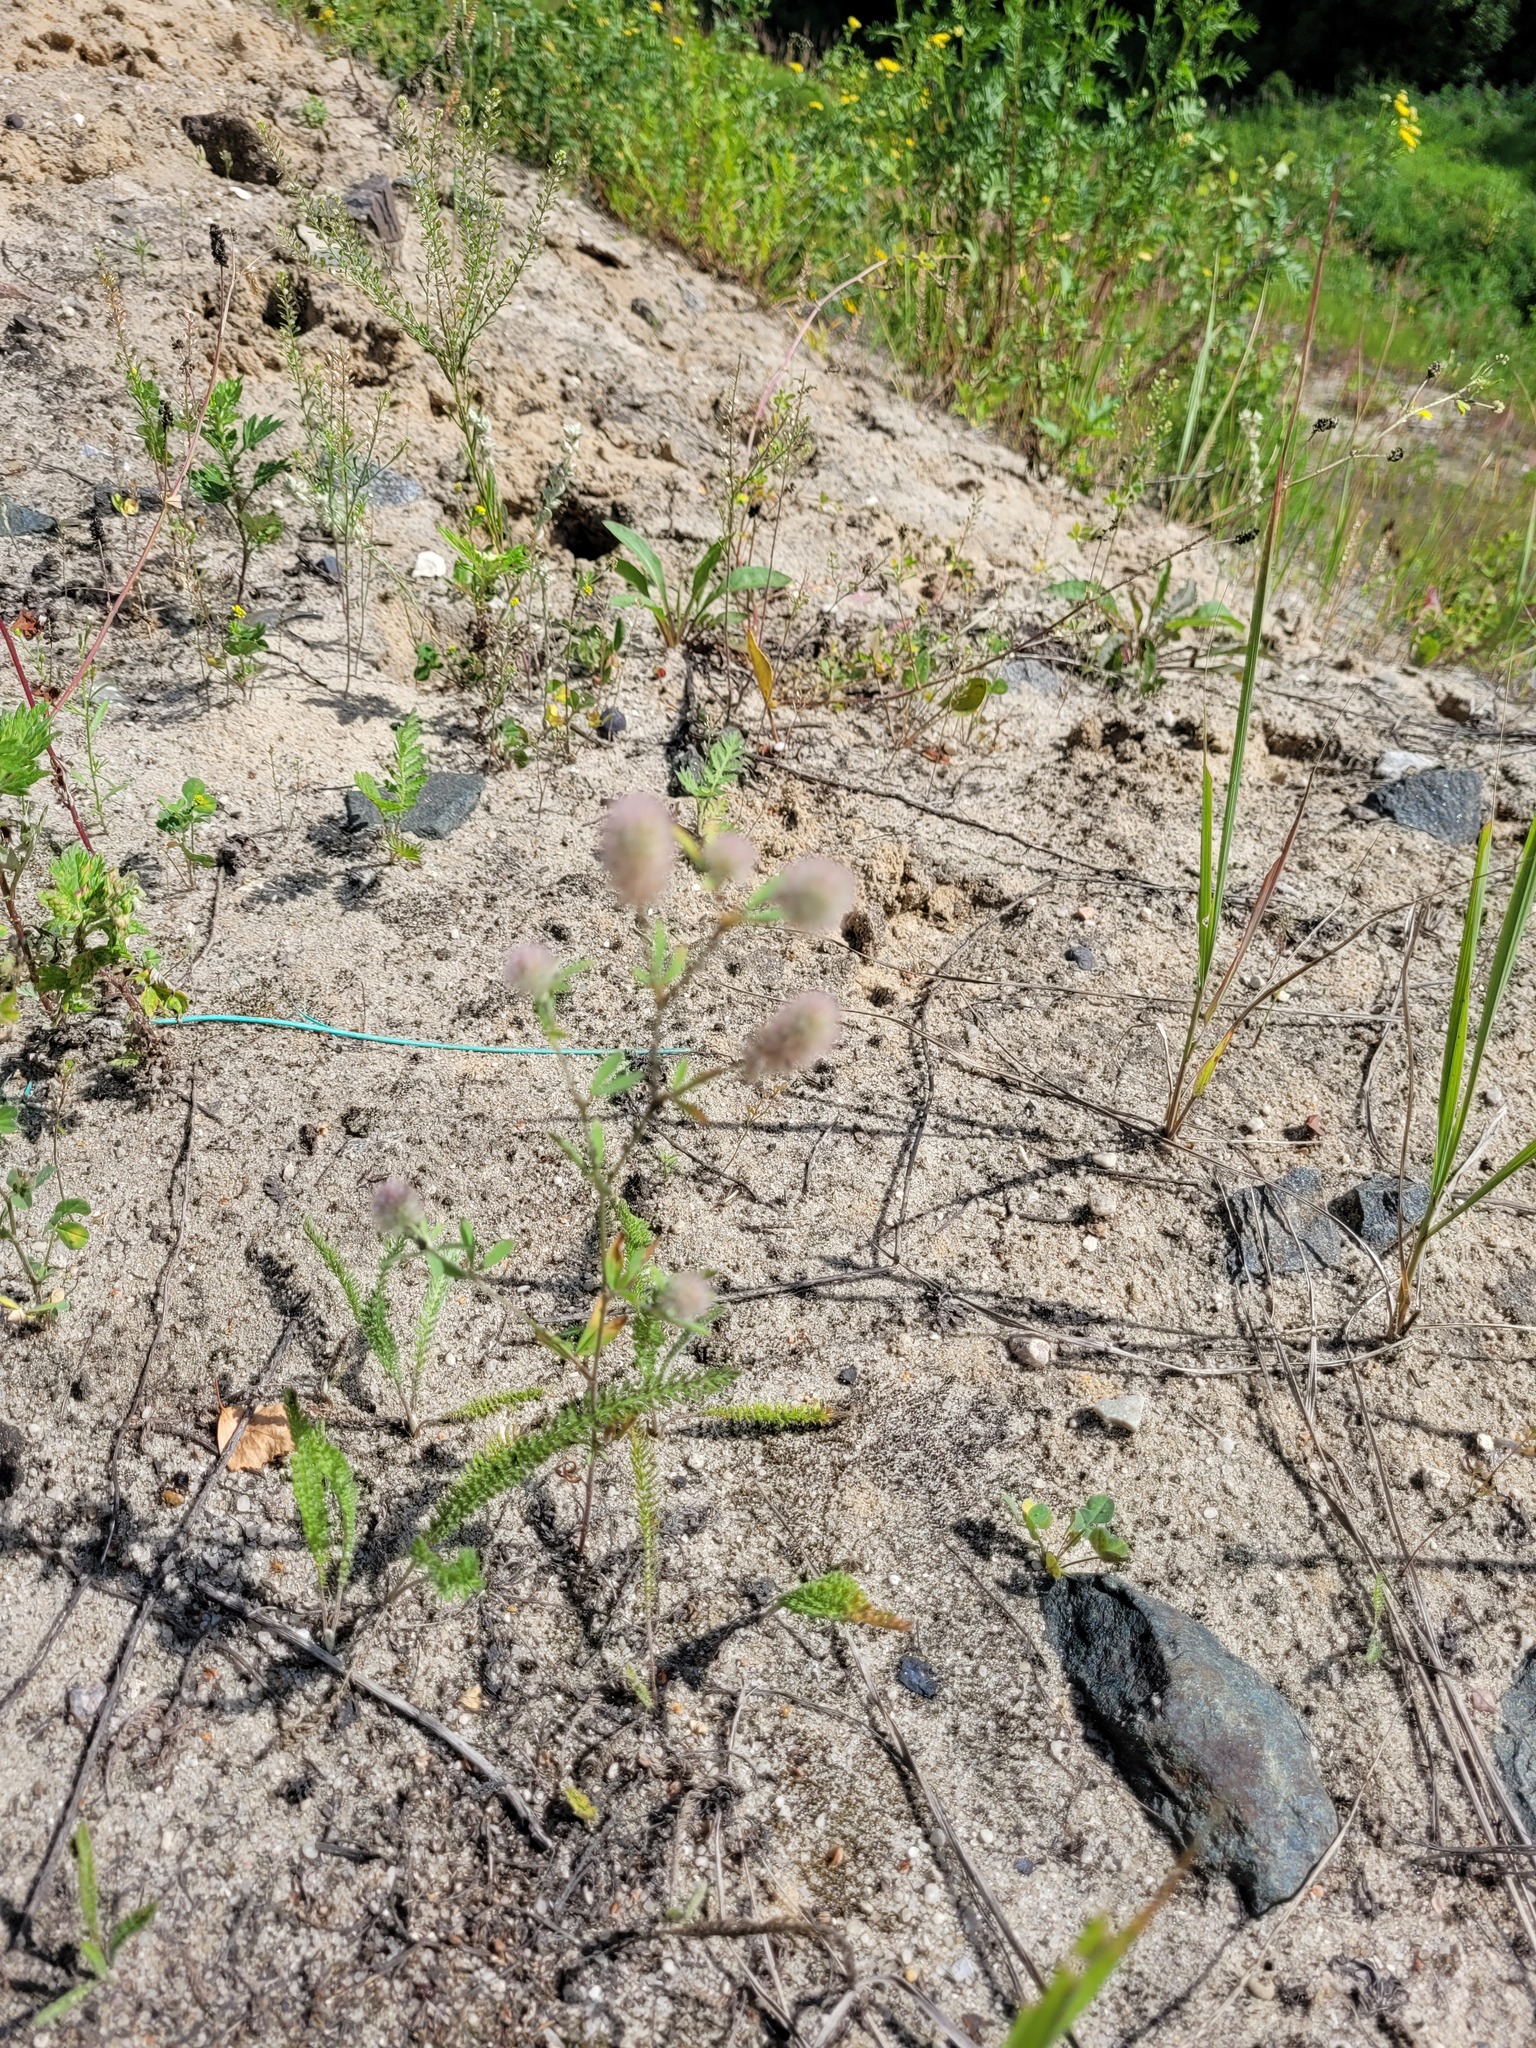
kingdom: Plantae
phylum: Tracheophyta
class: Magnoliopsida
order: Fabales
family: Fabaceae
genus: Trifolium
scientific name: Trifolium arvense
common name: Hare's-foot clover
